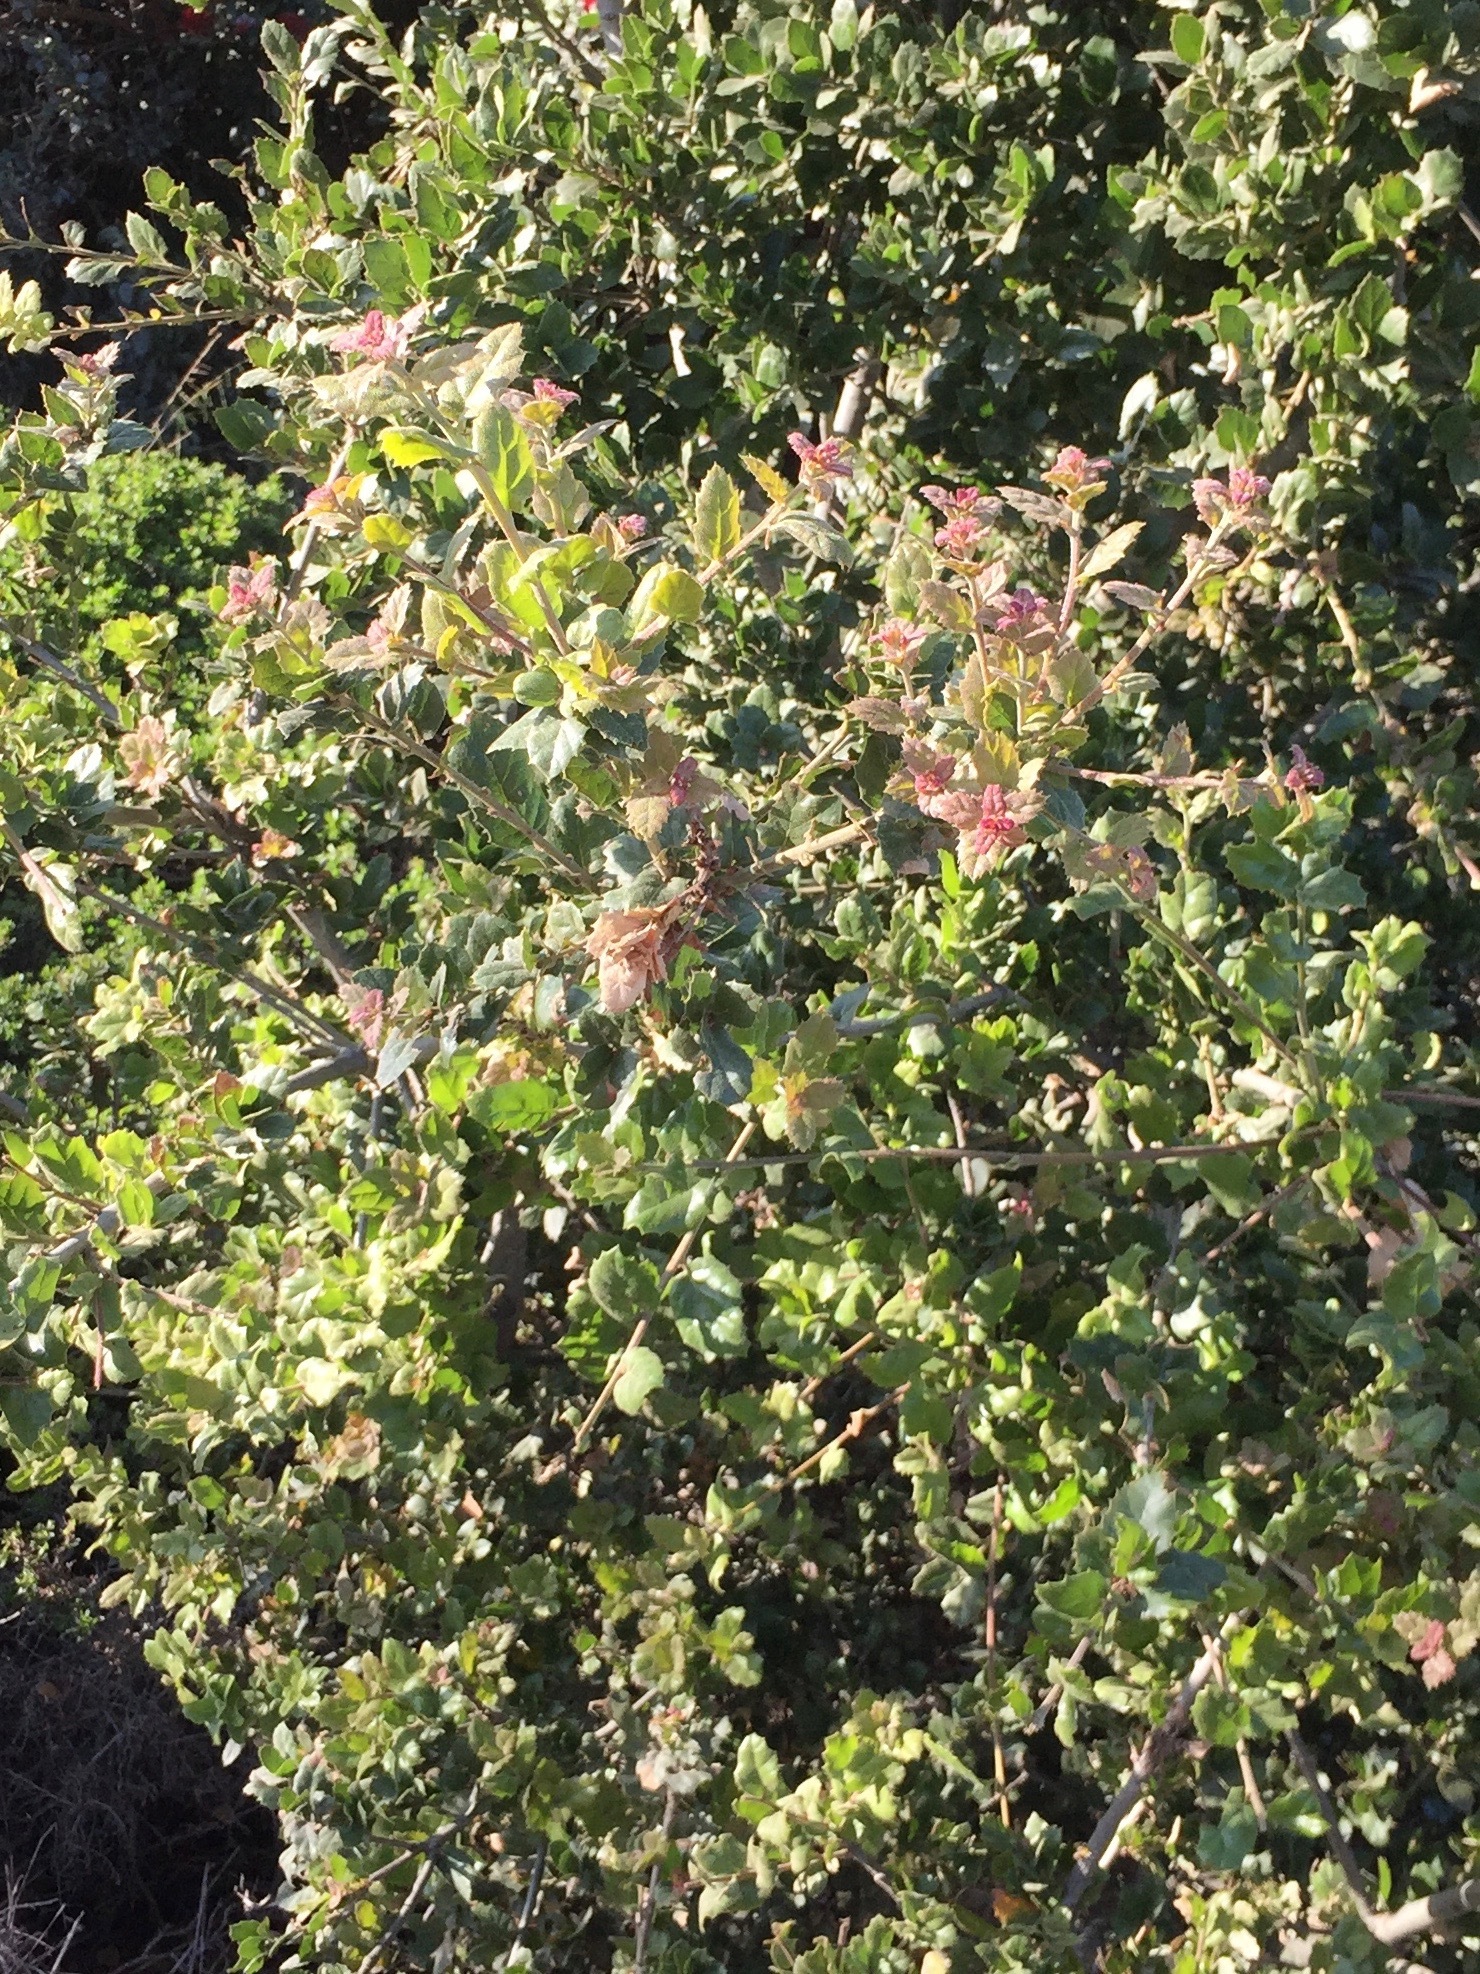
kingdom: Plantae
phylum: Tracheophyta
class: Magnoliopsida
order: Fagales
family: Fagaceae
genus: Quercus
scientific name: Quercus agrifolia
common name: California live oak
